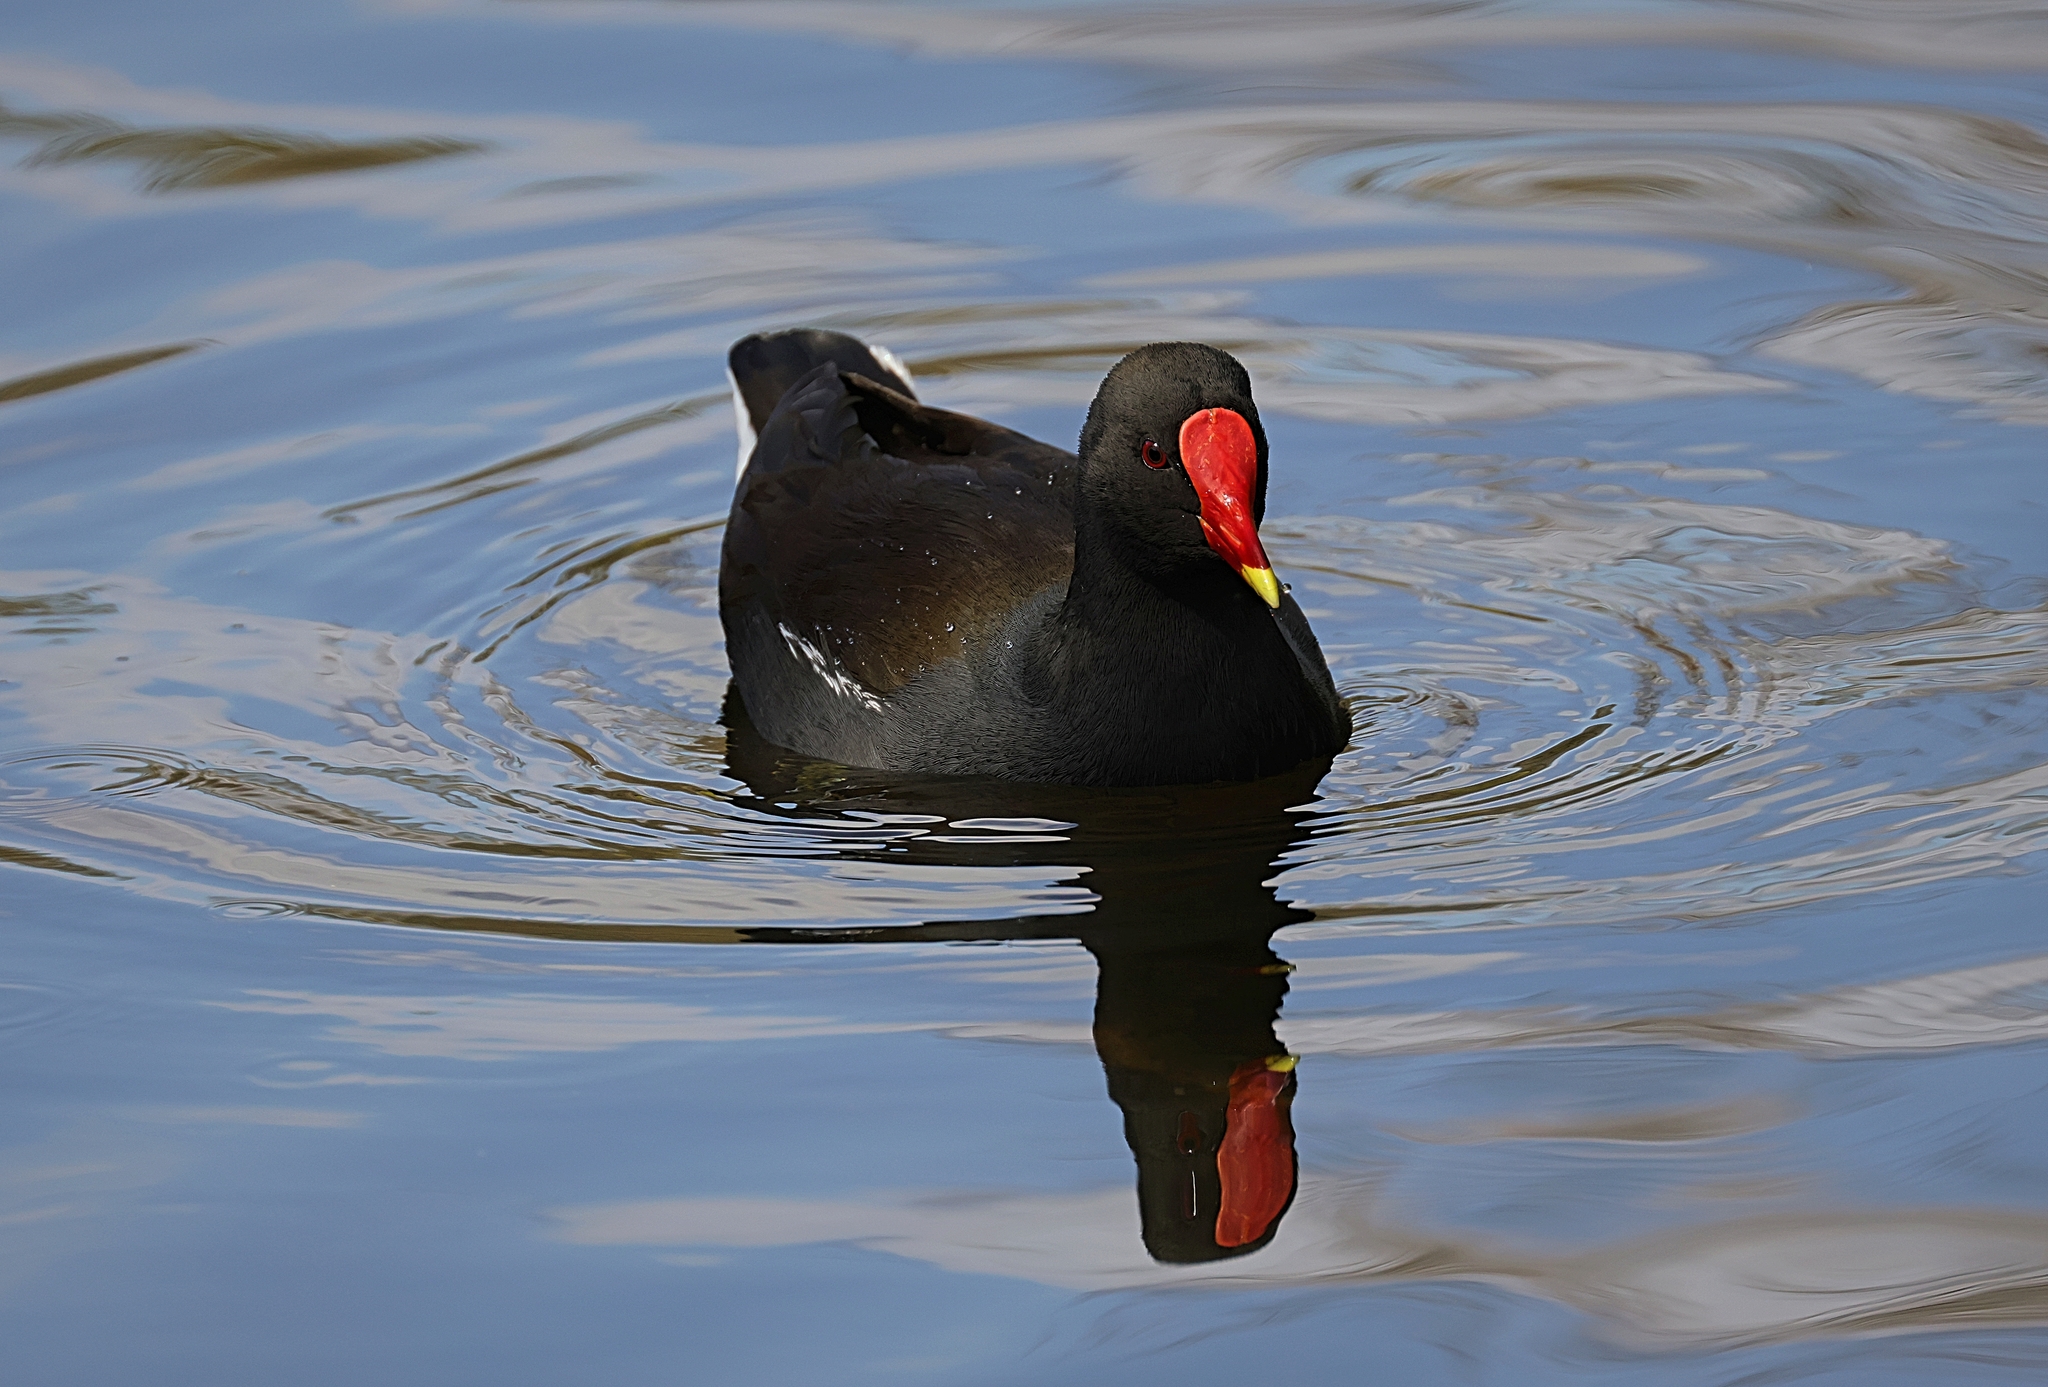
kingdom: Animalia
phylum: Chordata
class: Aves
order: Gruiformes
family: Rallidae
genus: Gallinula
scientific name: Gallinula chloropus
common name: Common moorhen
